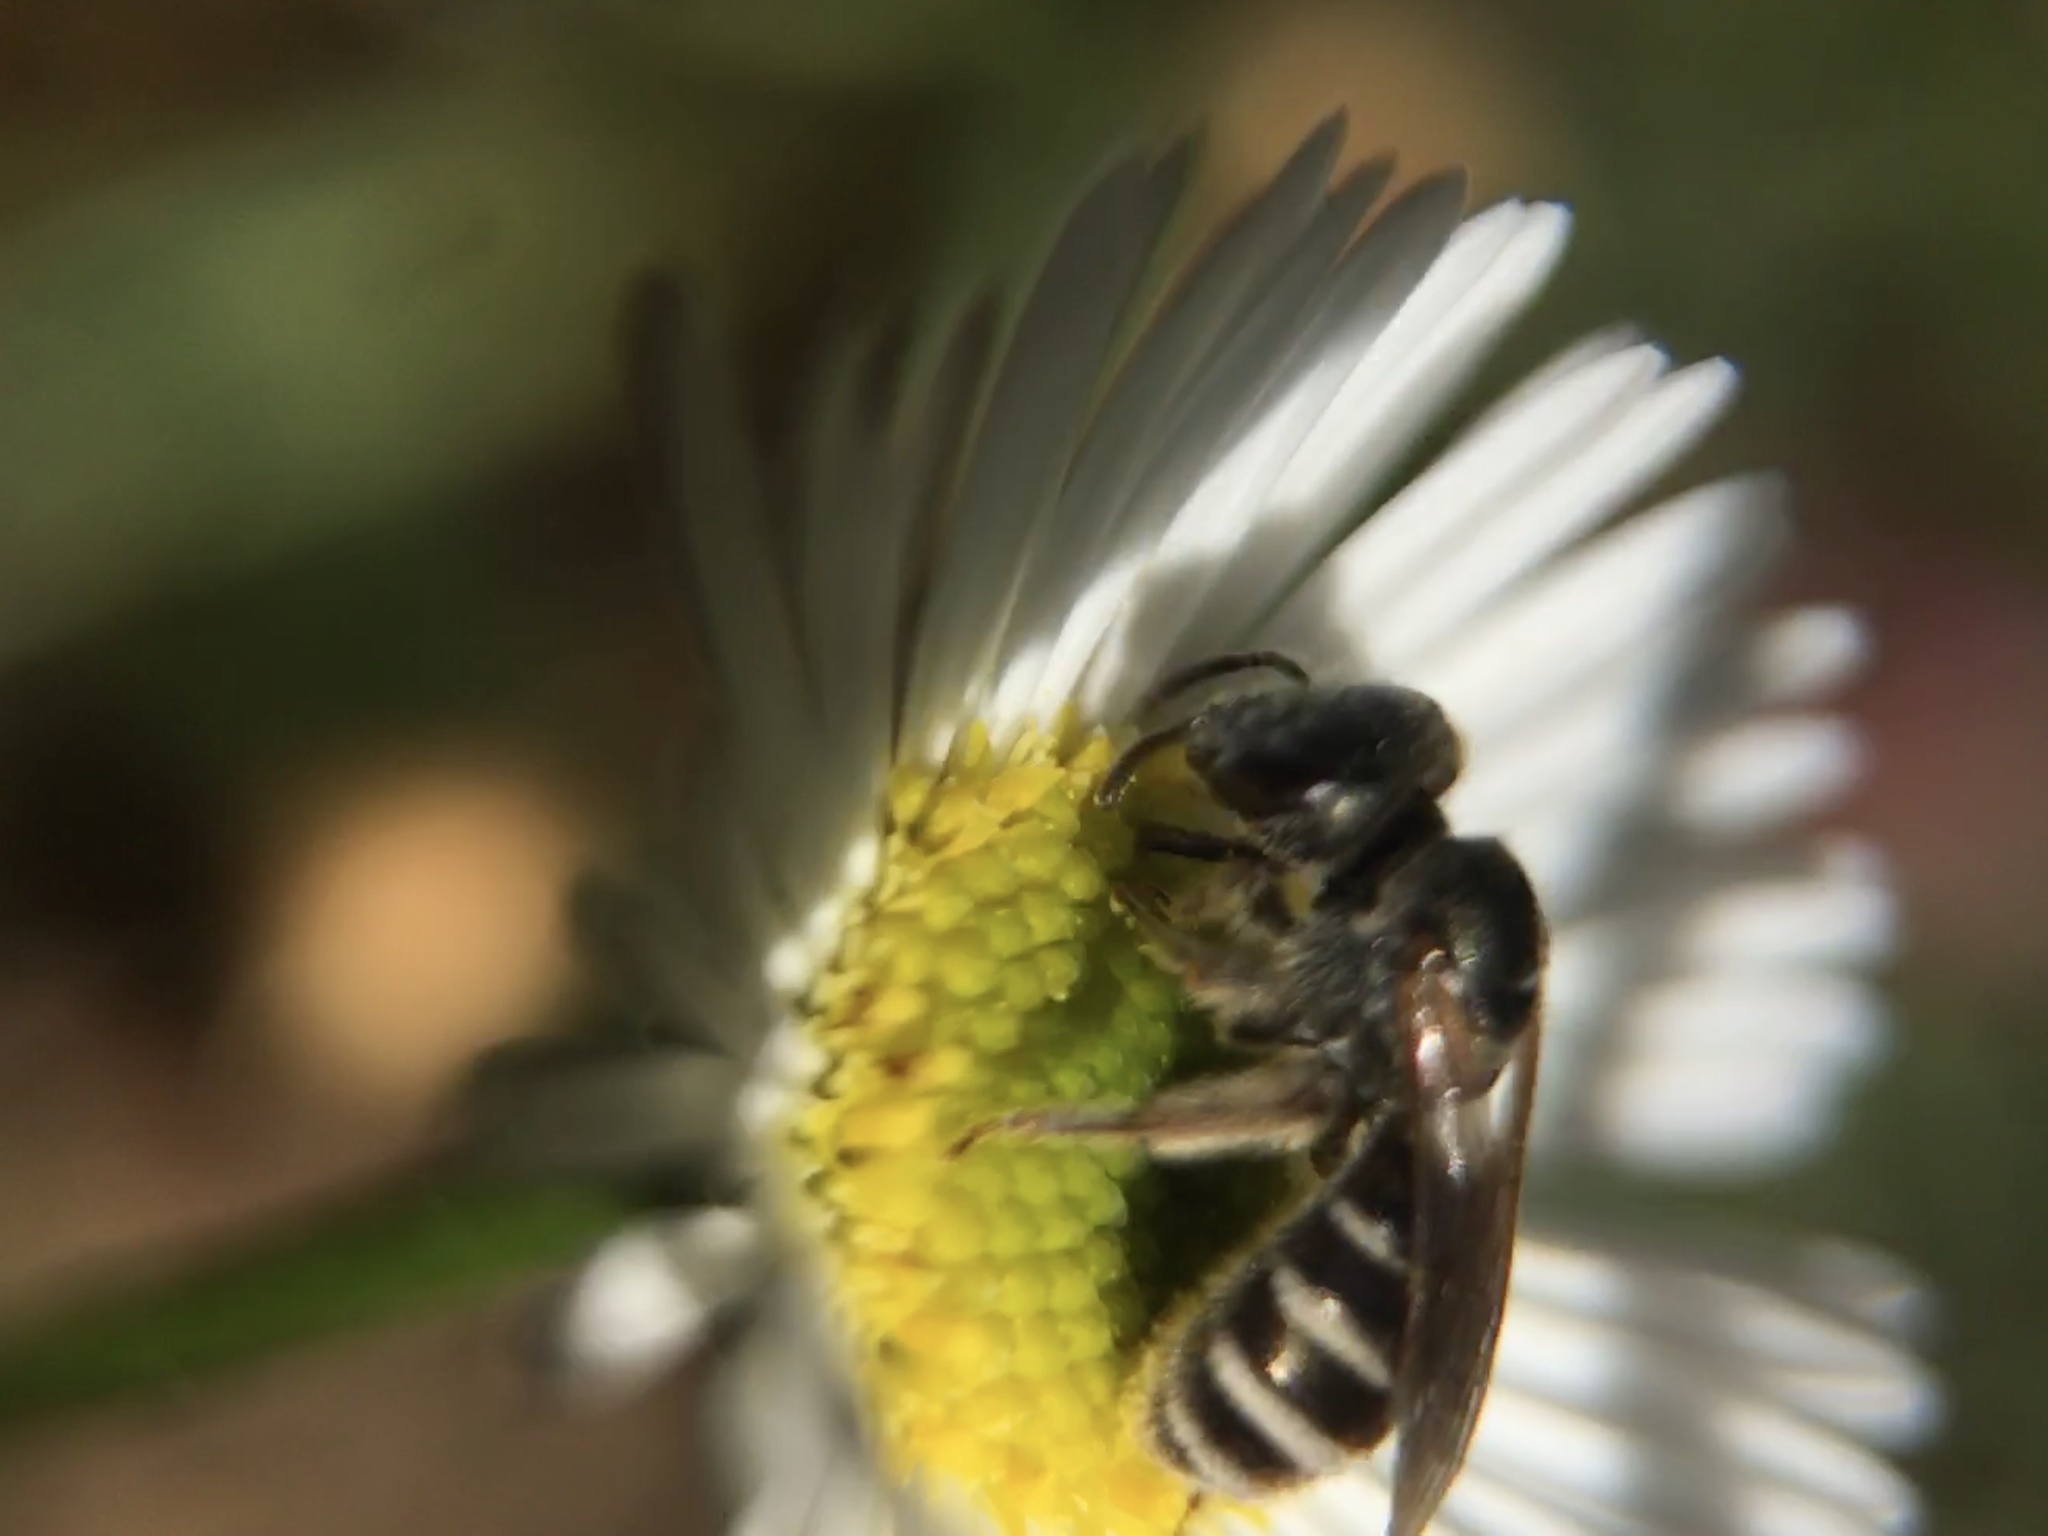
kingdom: Animalia
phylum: Arthropoda
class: Insecta
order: Hymenoptera
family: Halictidae
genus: Halictus
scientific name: Halictus tripartitus
